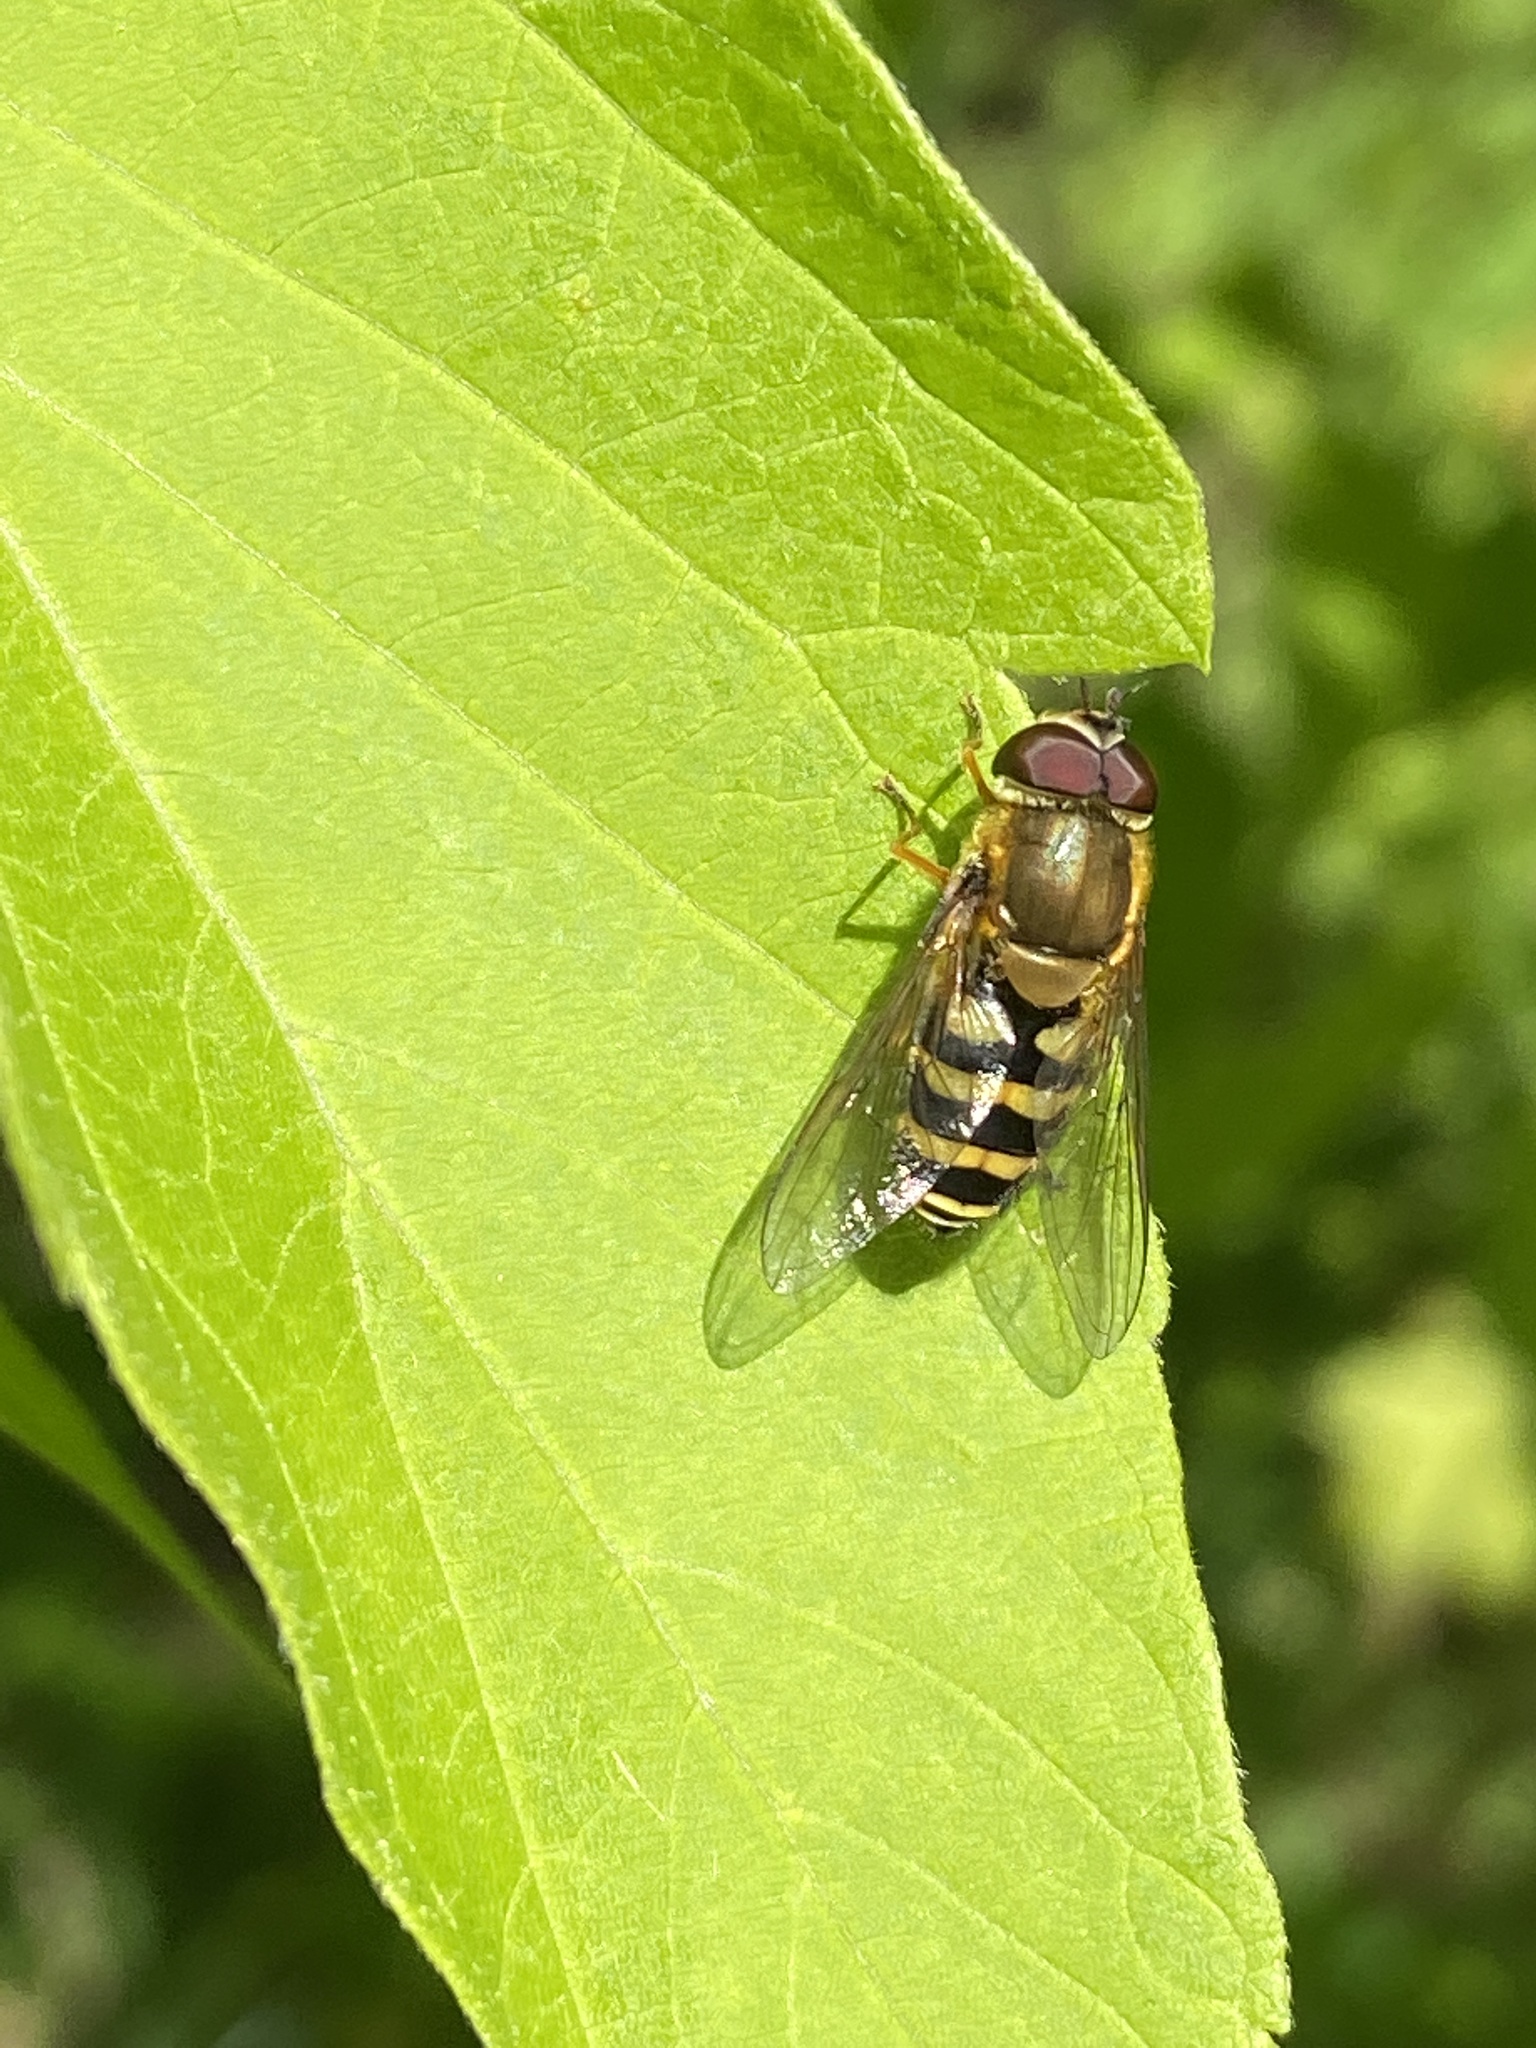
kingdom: Animalia
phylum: Arthropoda
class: Insecta
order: Diptera
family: Syrphidae
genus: Syrphus
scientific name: Syrphus
